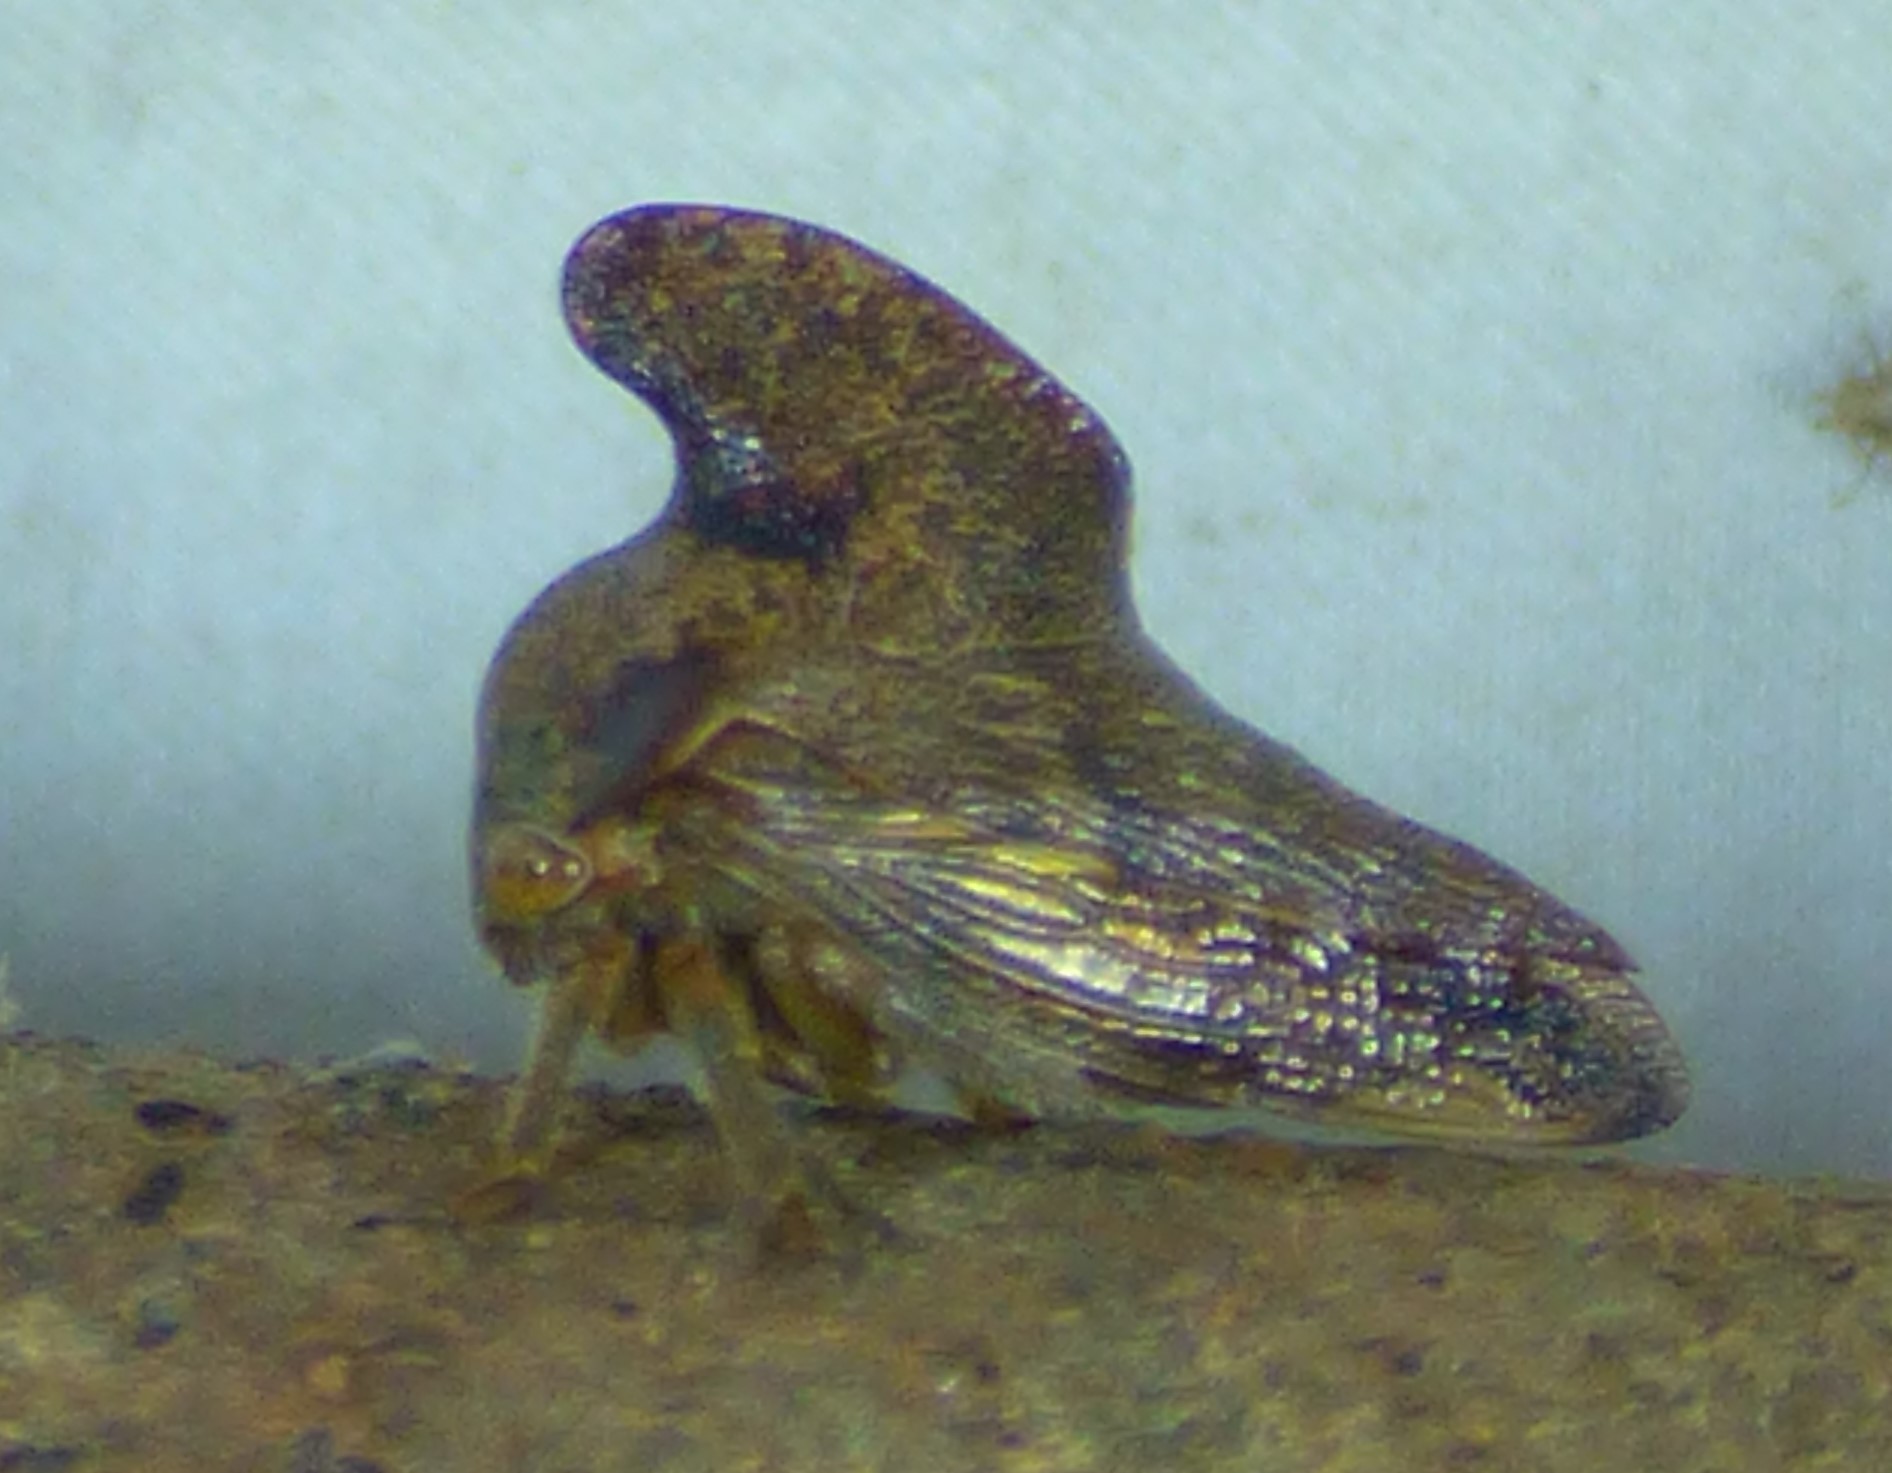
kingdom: Animalia
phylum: Arthropoda
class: Insecta
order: Hemiptera
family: Membracidae
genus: Telamona
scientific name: Telamona projecta
